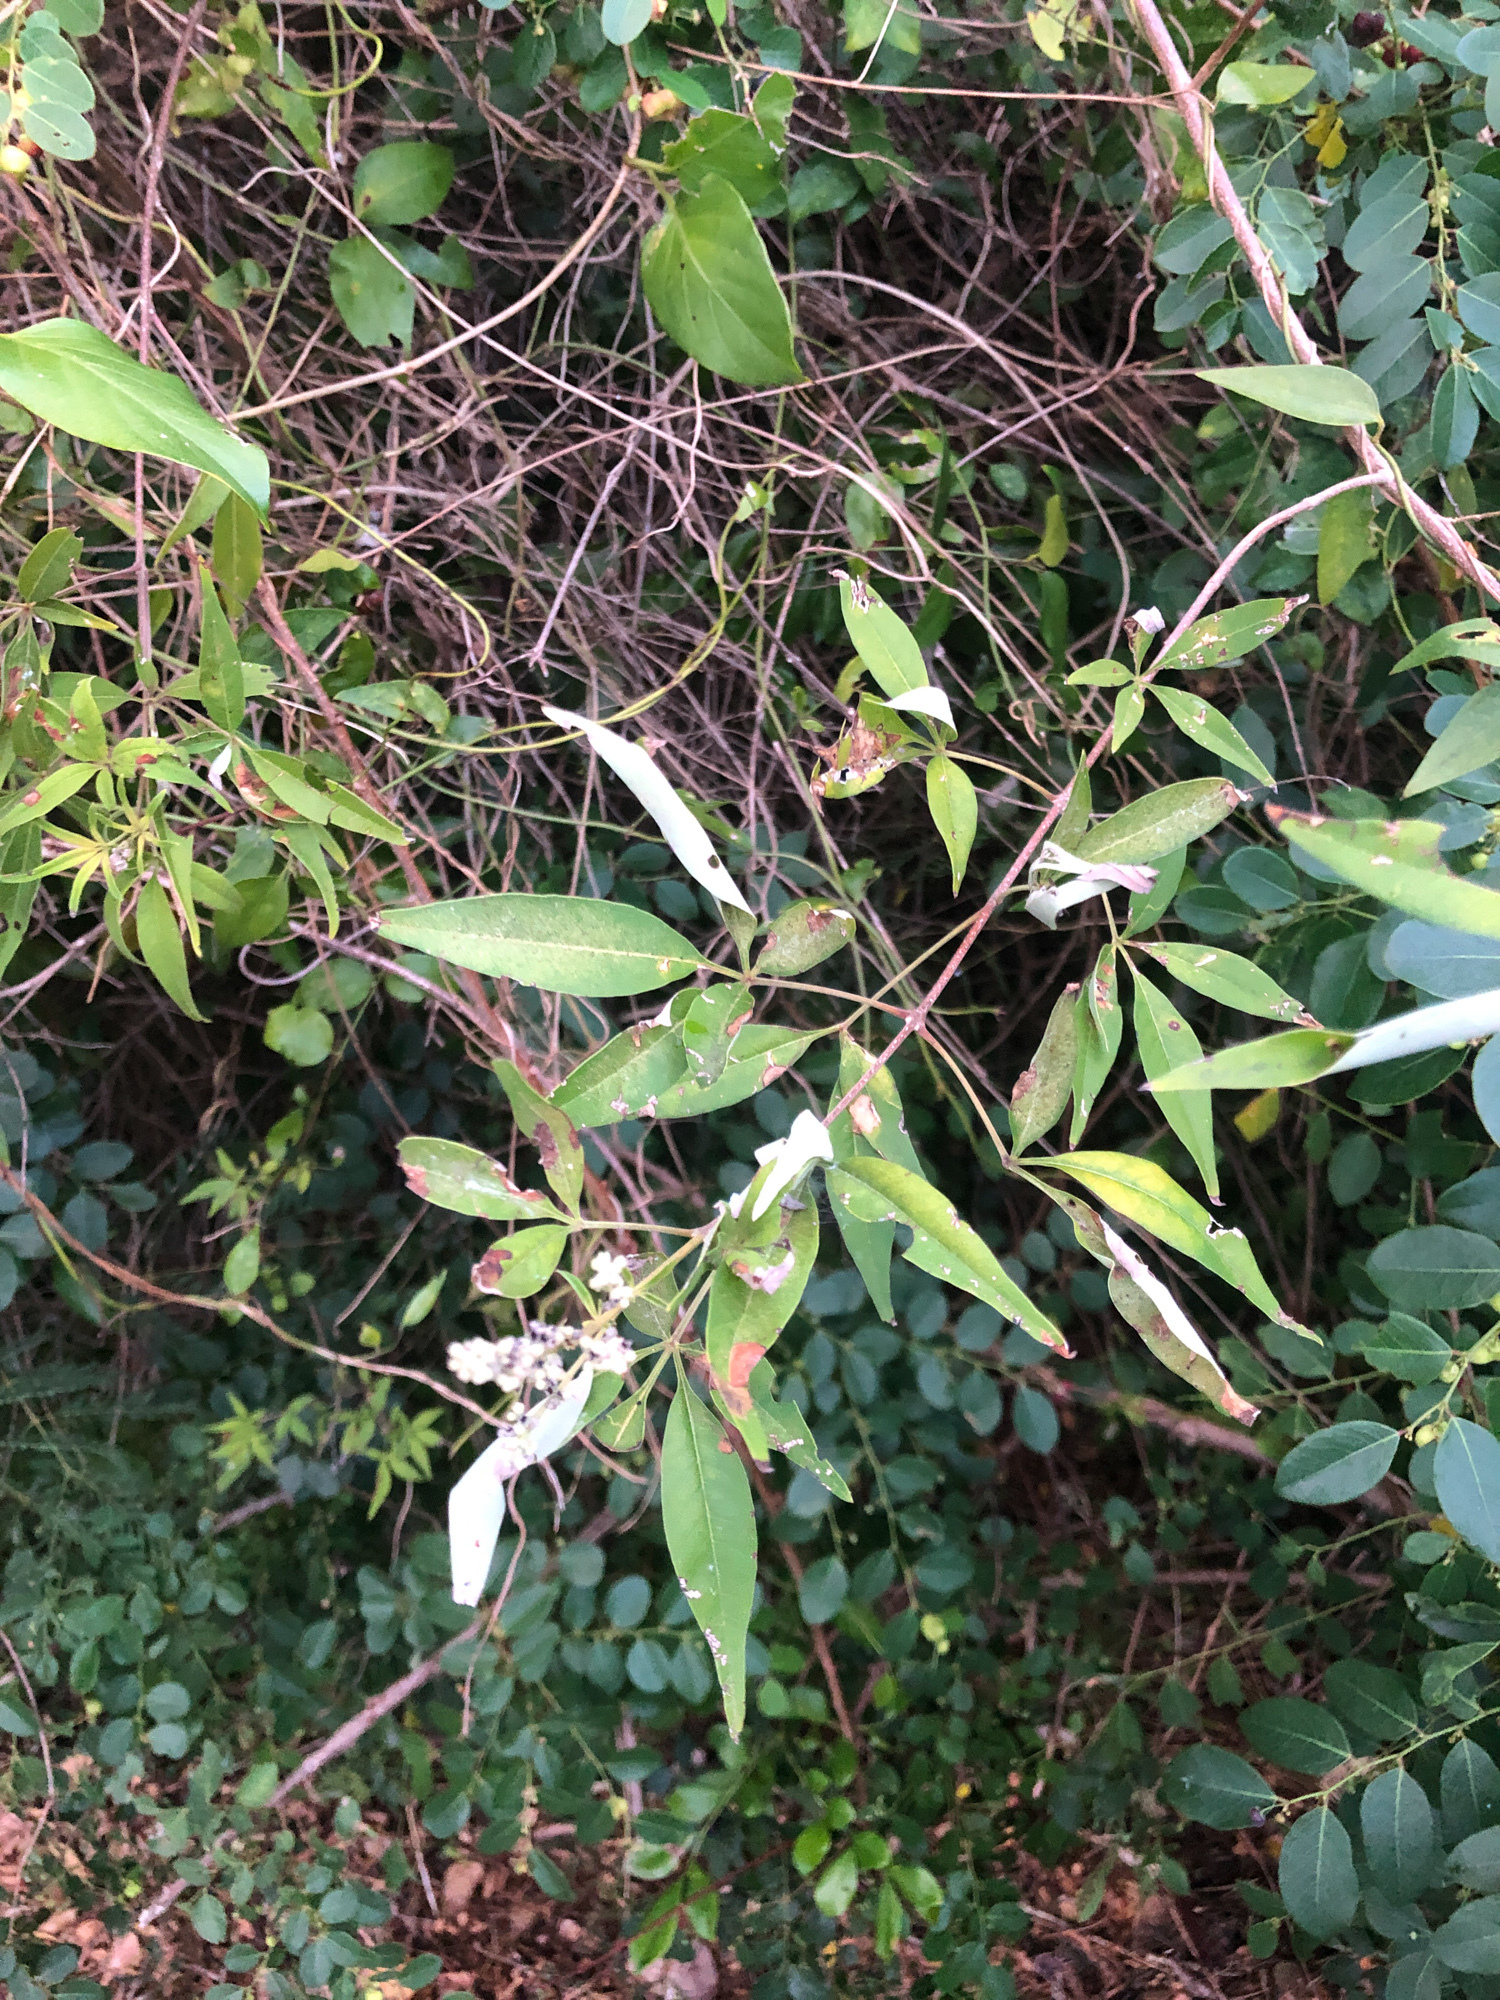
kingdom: Plantae
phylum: Tracheophyta
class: Magnoliopsida
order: Lamiales
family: Lamiaceae
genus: Vitex
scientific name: Vitex negundo
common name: Chinese chastetree
